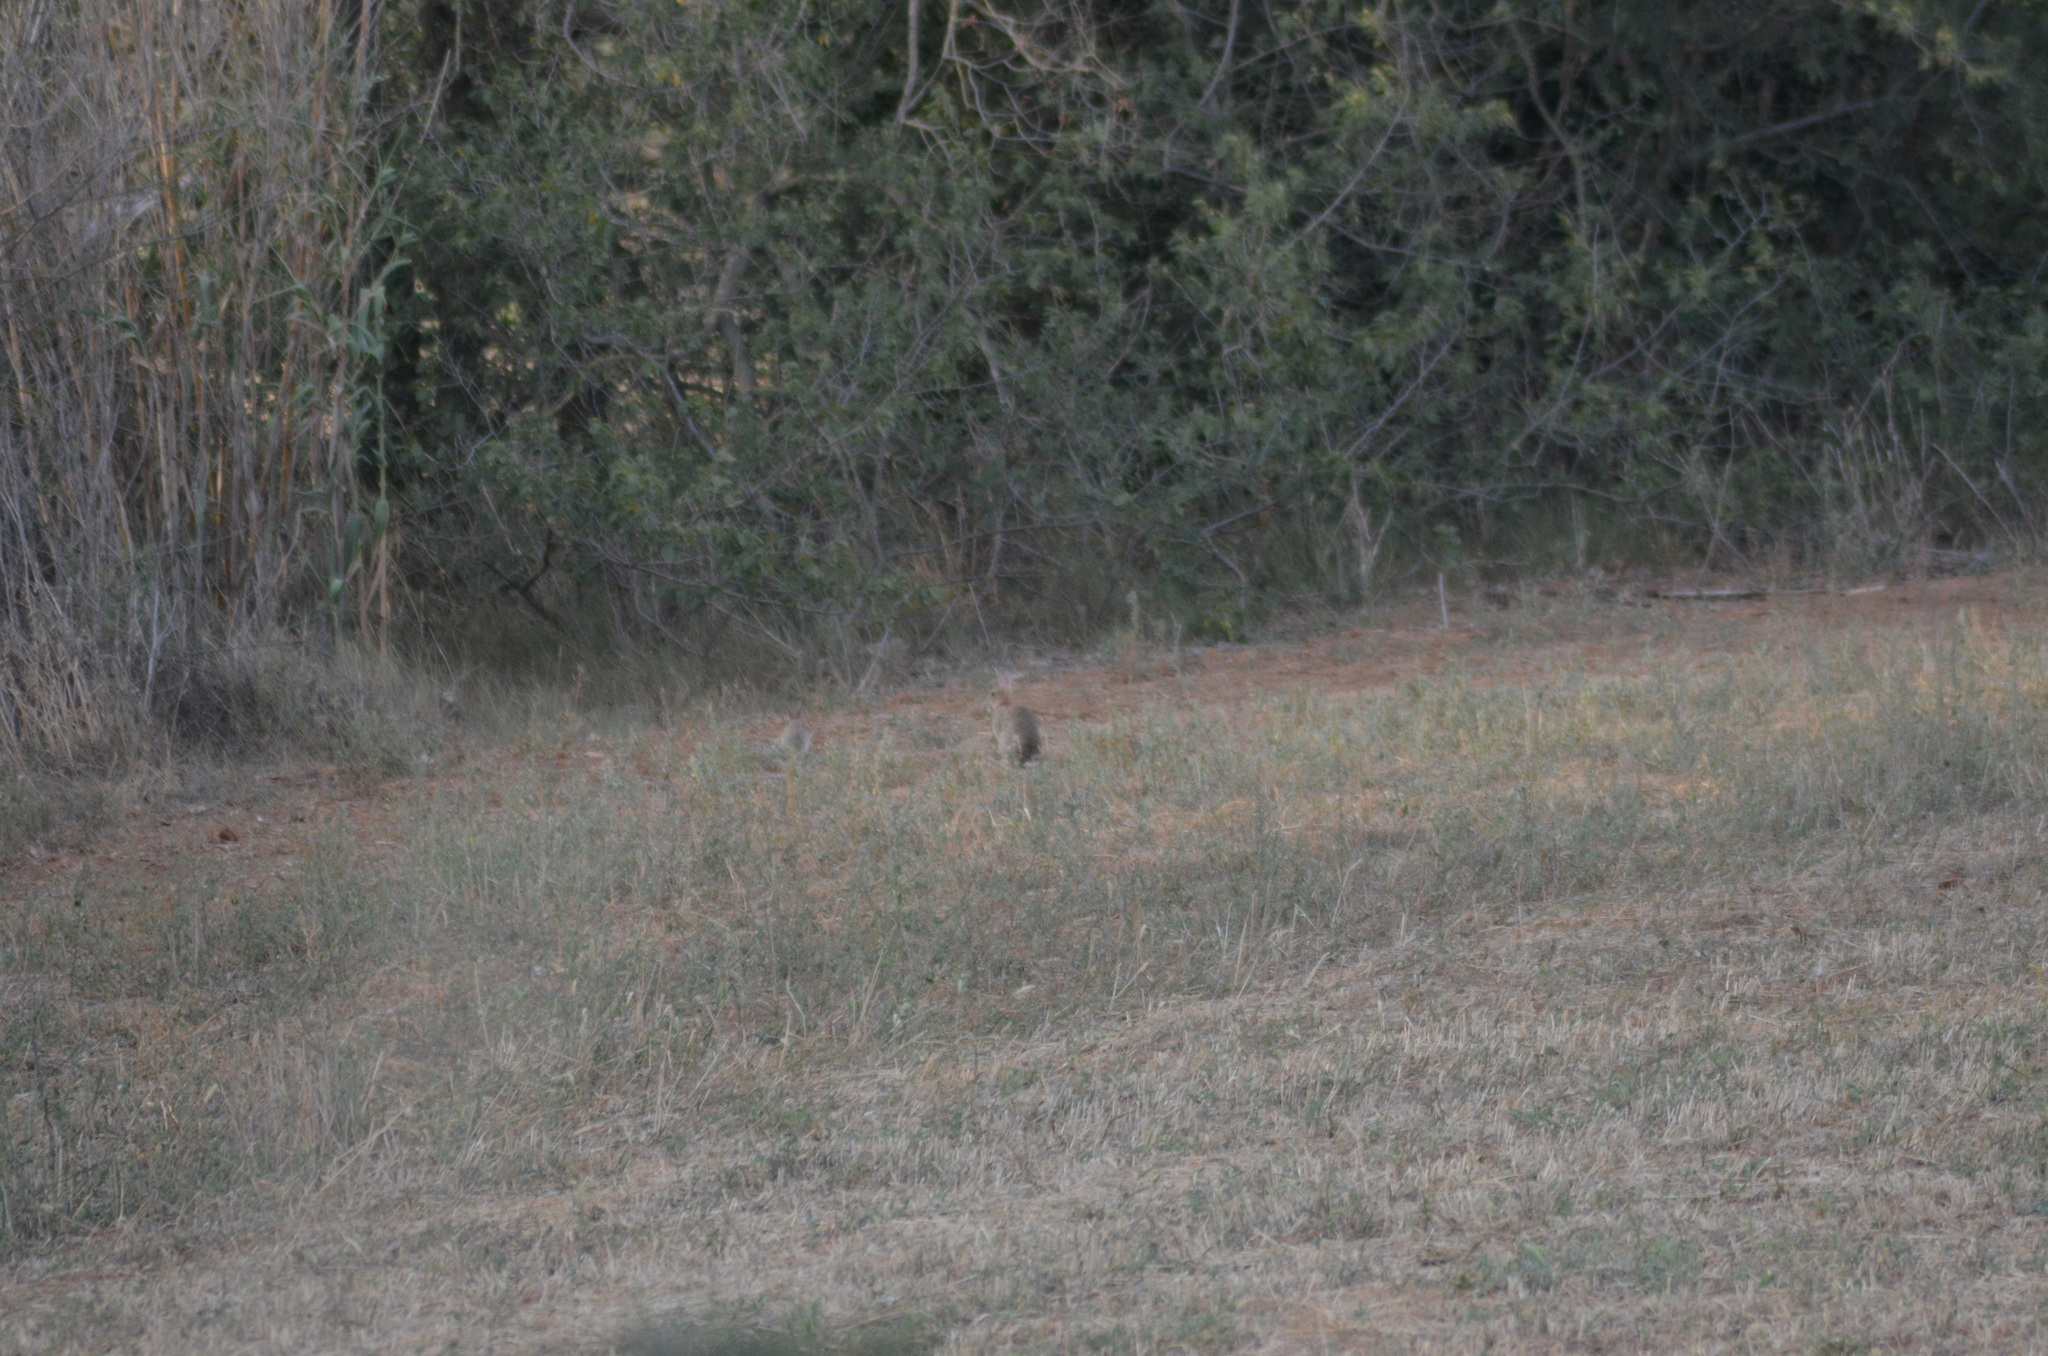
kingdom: Animalia
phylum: Chordata
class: Mammalia
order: Lagomorpha
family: Leporidae
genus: Oryctolagus
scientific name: Oryctolagus cuniculus
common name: European rabbit
